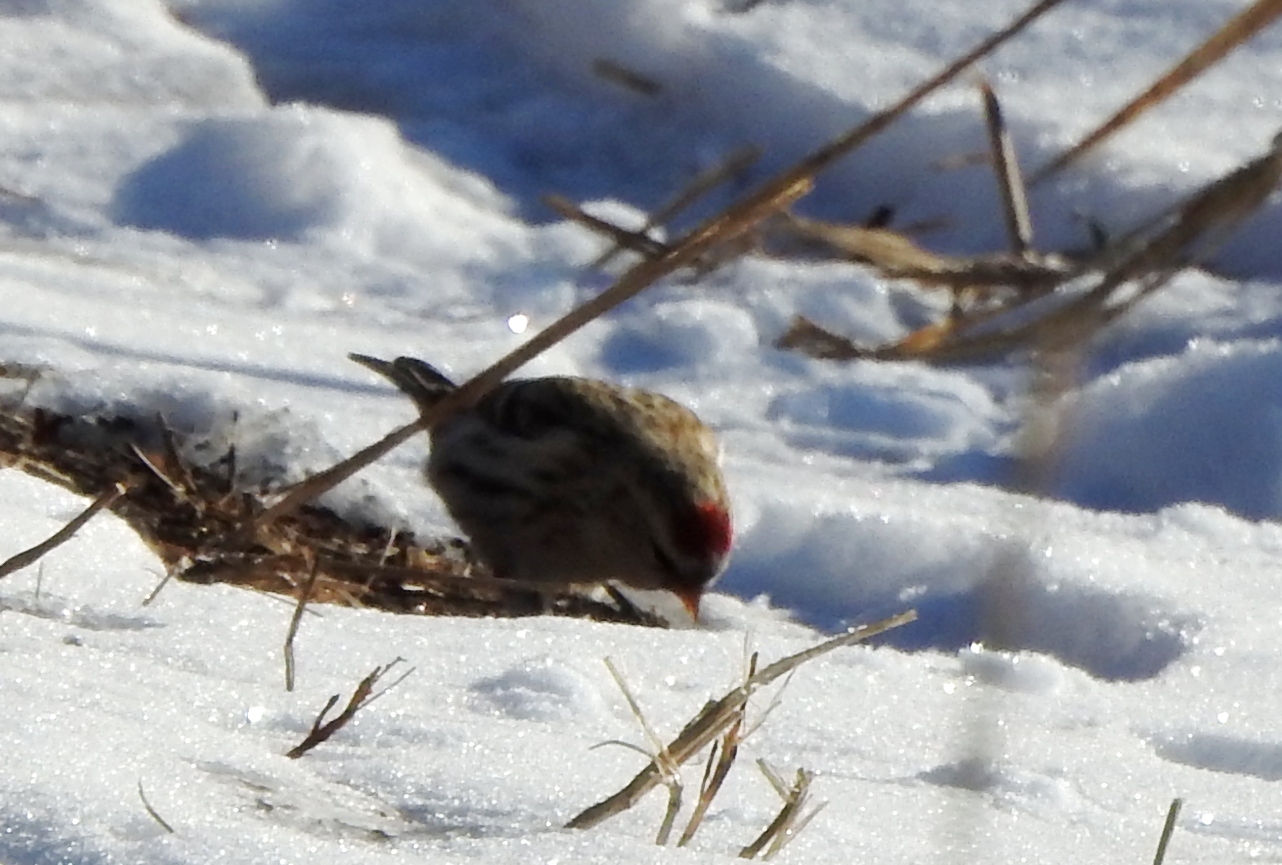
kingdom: Animalia
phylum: Chordata
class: Aves
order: Passeriformes
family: Fringillidae
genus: Acanthis
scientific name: Acanthis flammea
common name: Common redpoll
